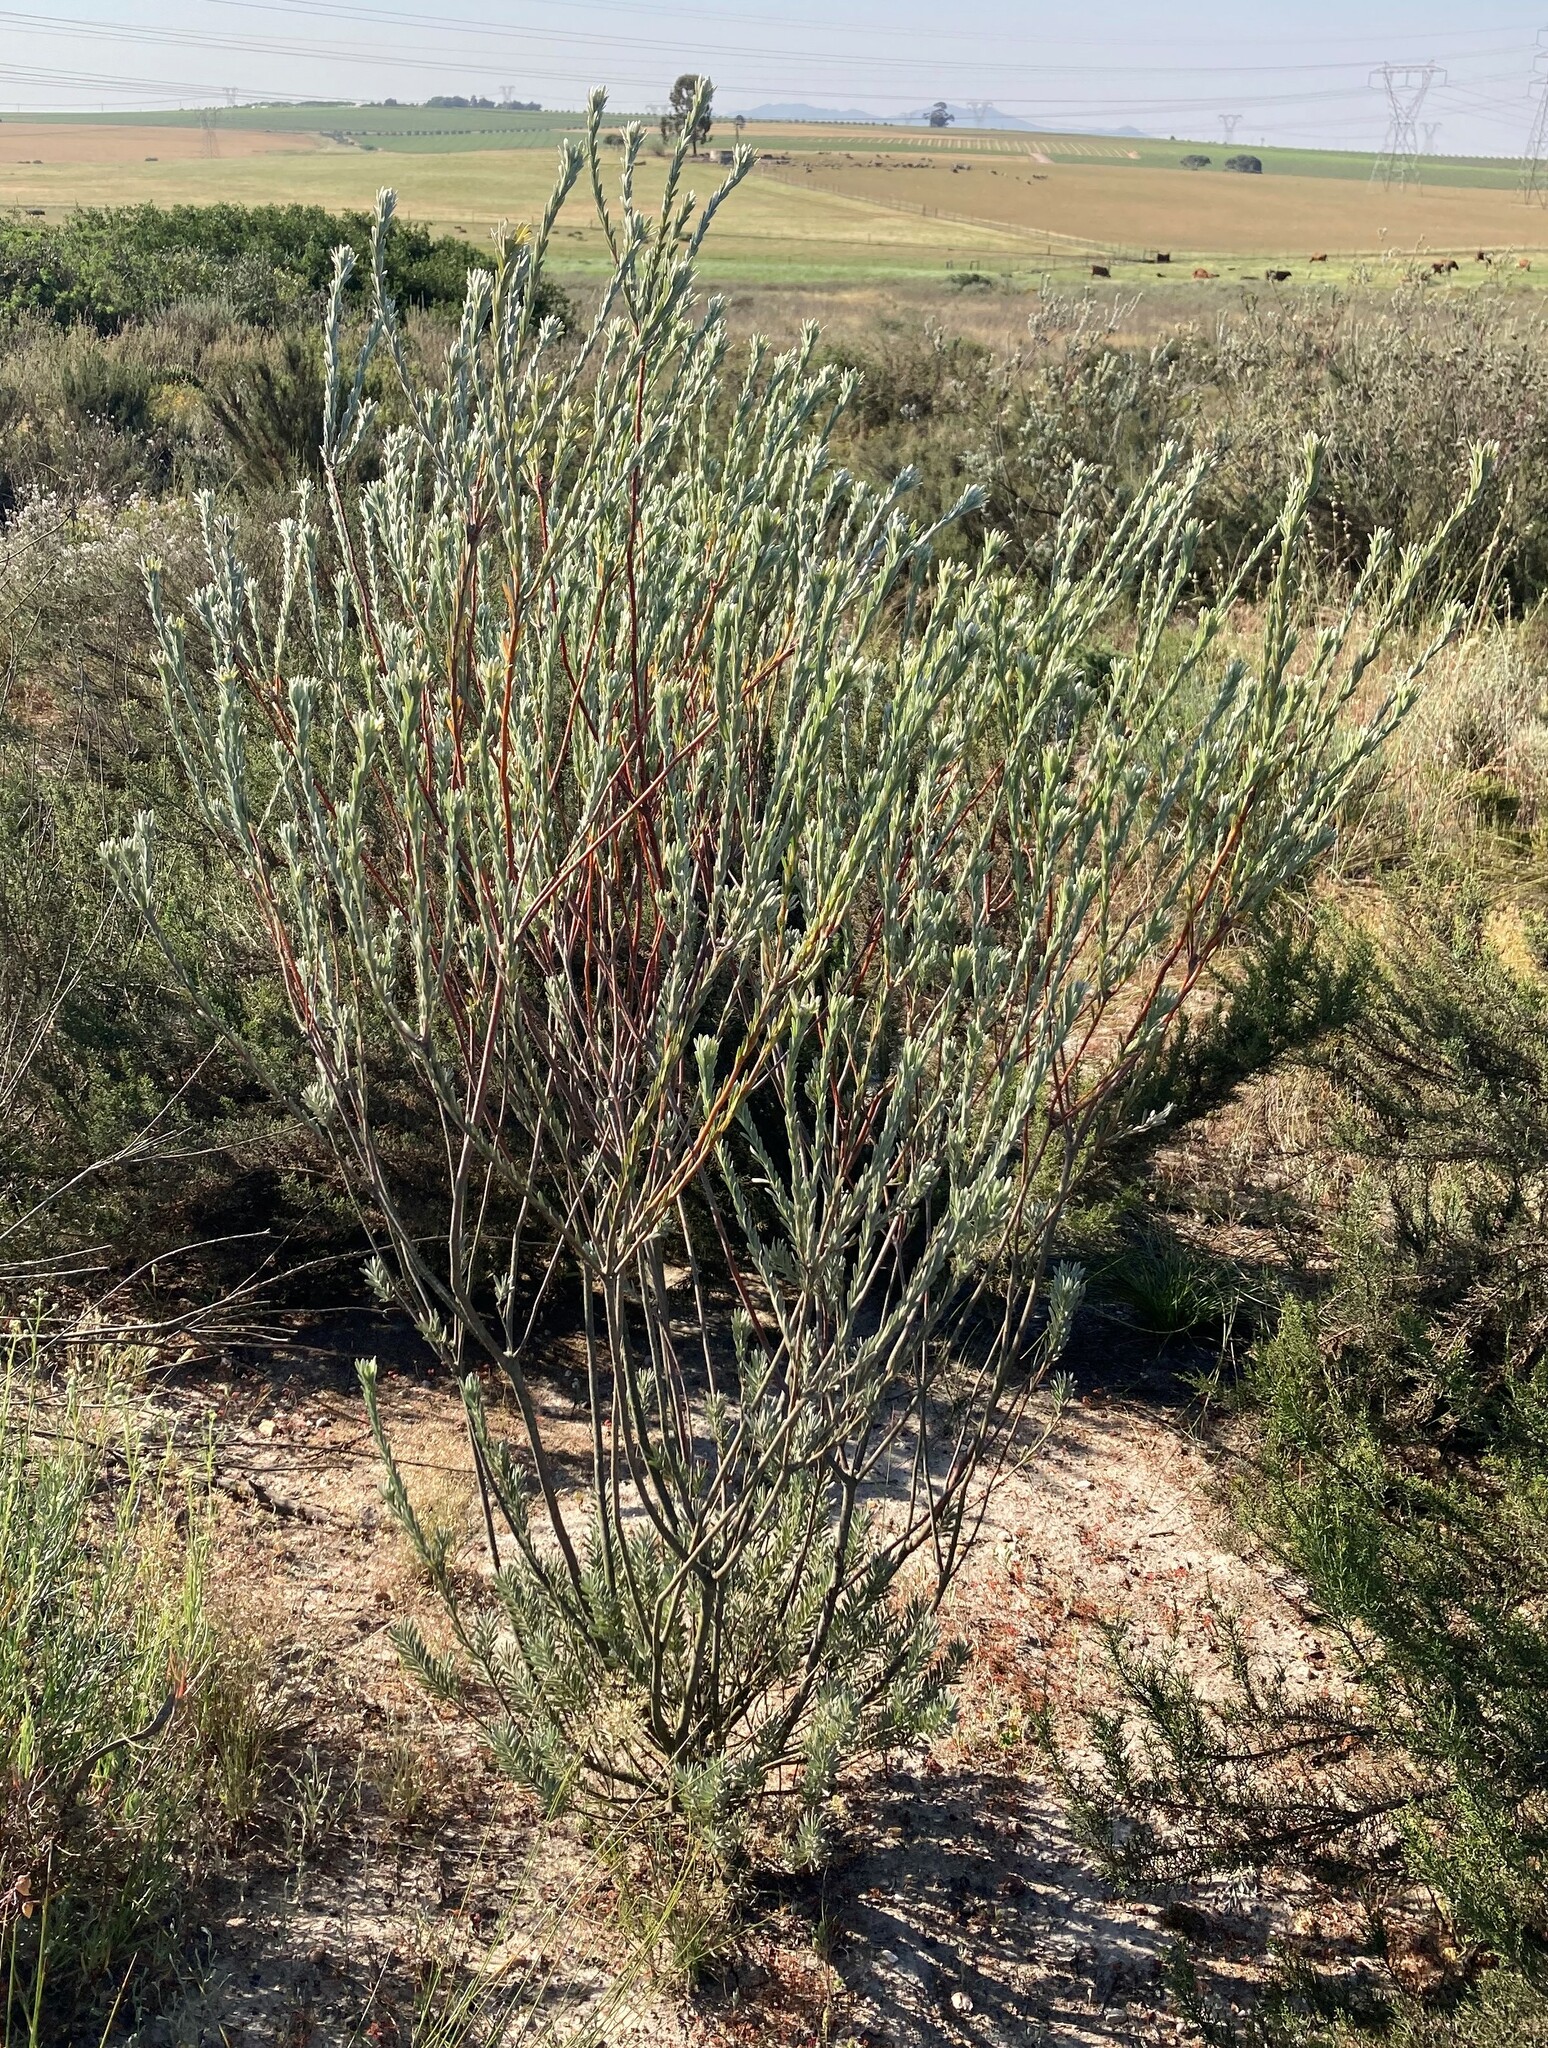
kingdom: Plantae
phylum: Tracheophyta
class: Magnoliopsida
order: Proteales
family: Proteaceae
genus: Leucadendron
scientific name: Leucadendron verticillatum
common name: Klapmuts conebush
